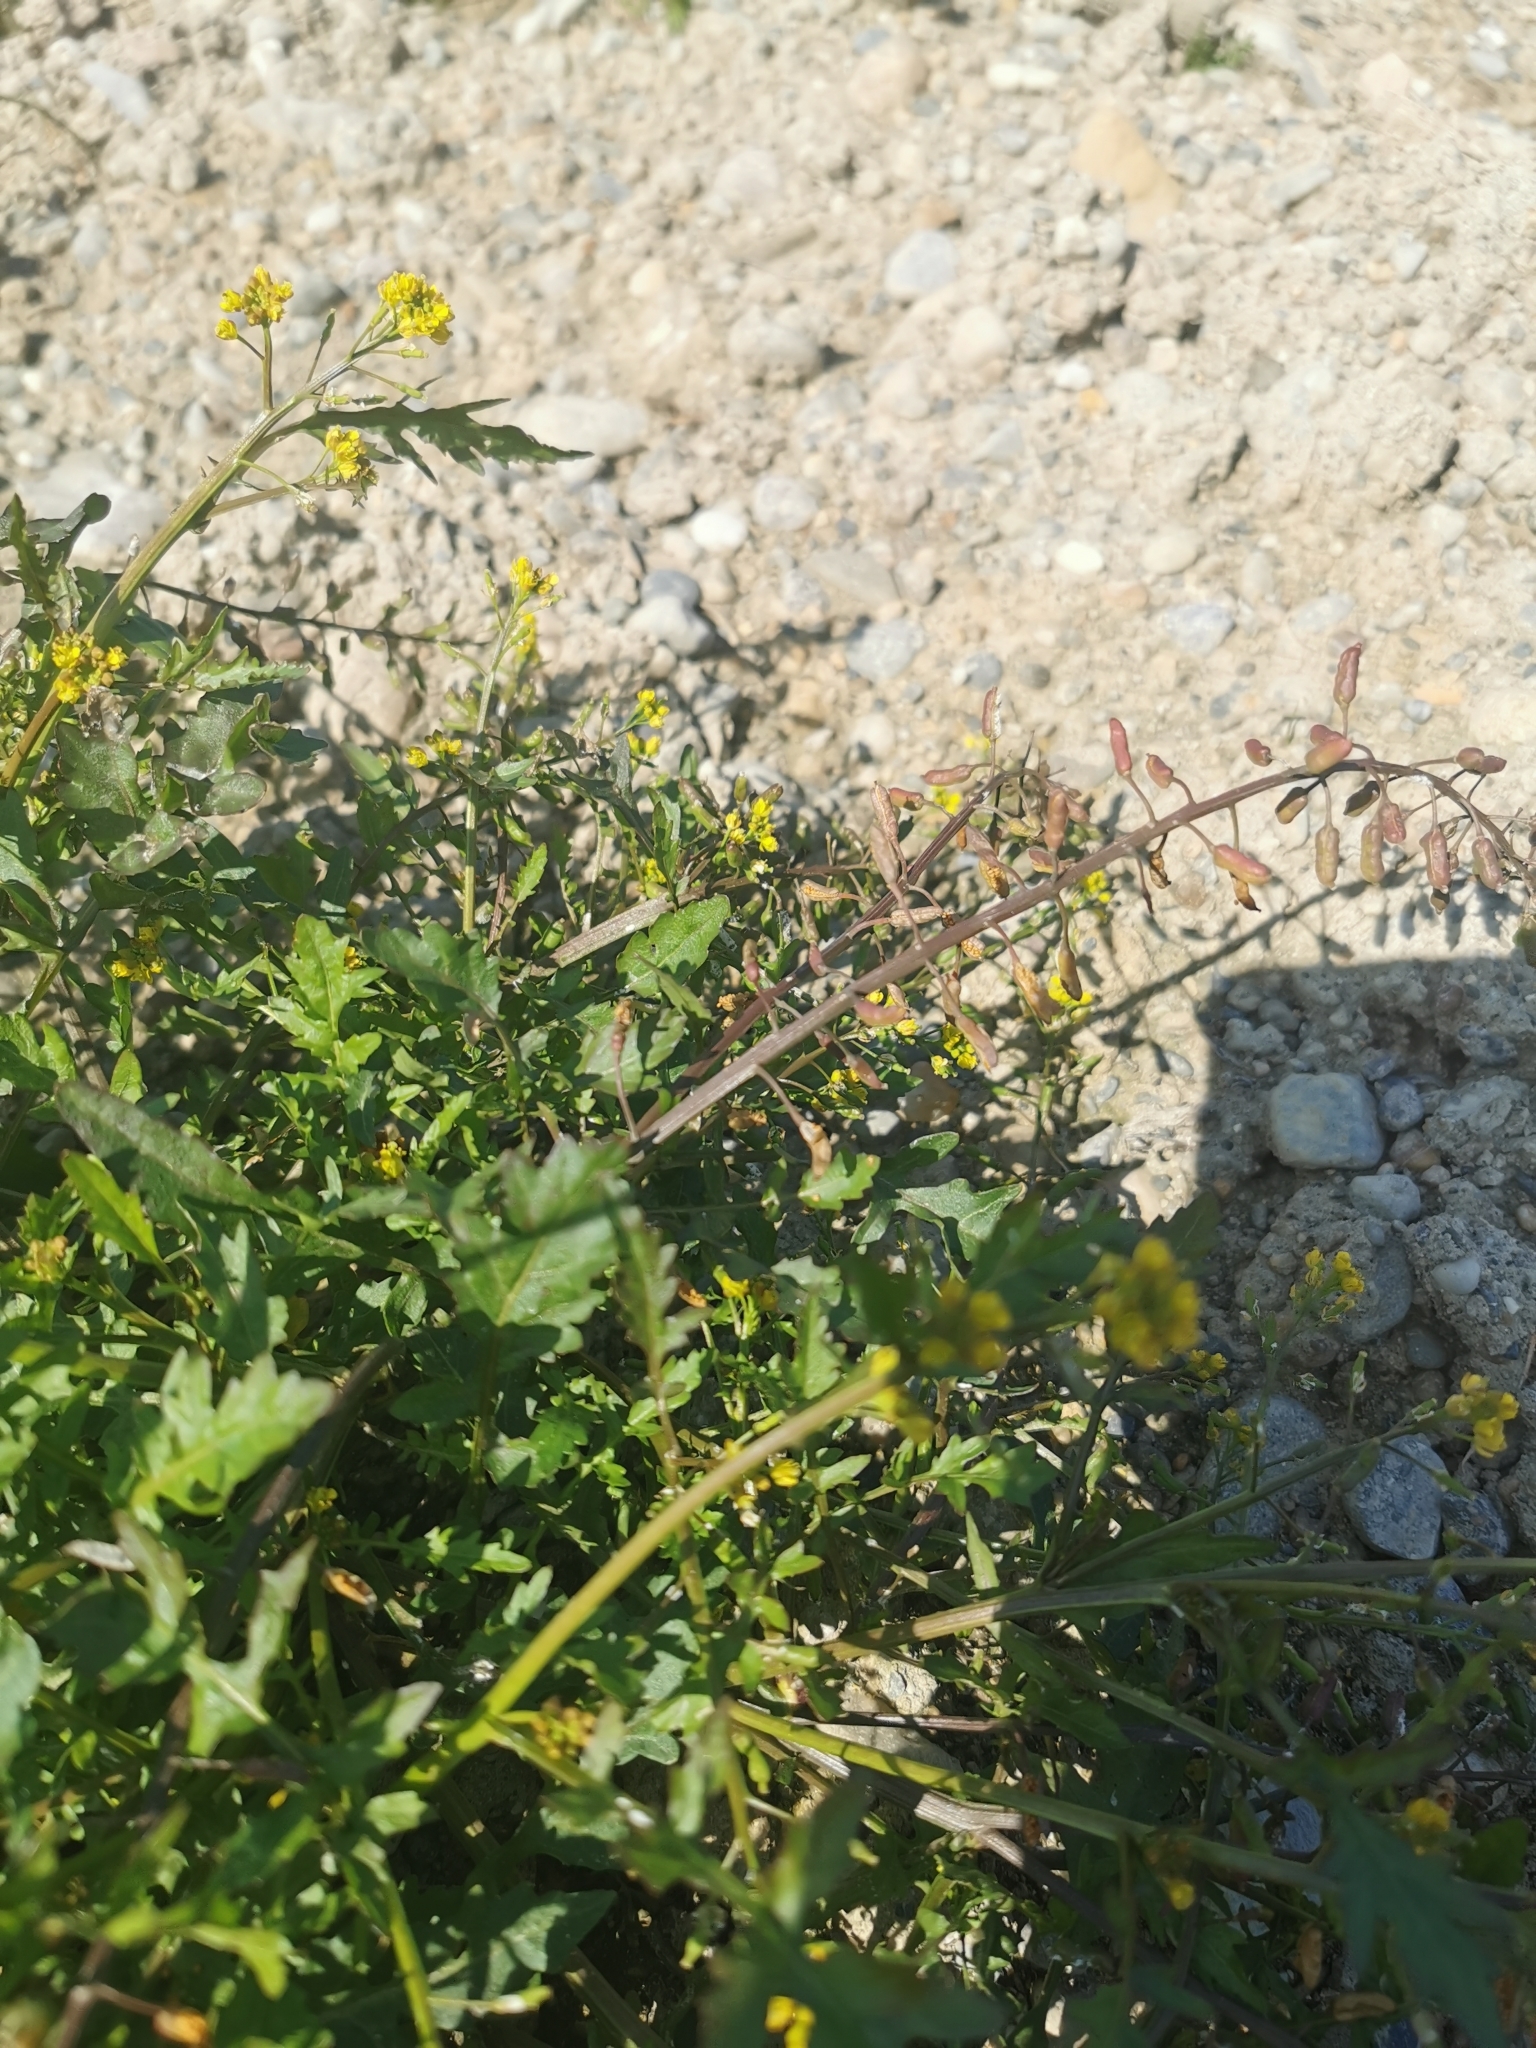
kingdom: Plantae
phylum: Tracheophyta
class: Magnoliopsida
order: Brassicales
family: Brassicaceae
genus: Rorippa
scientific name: Rorippa palustris
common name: Marsh yellow-cress
